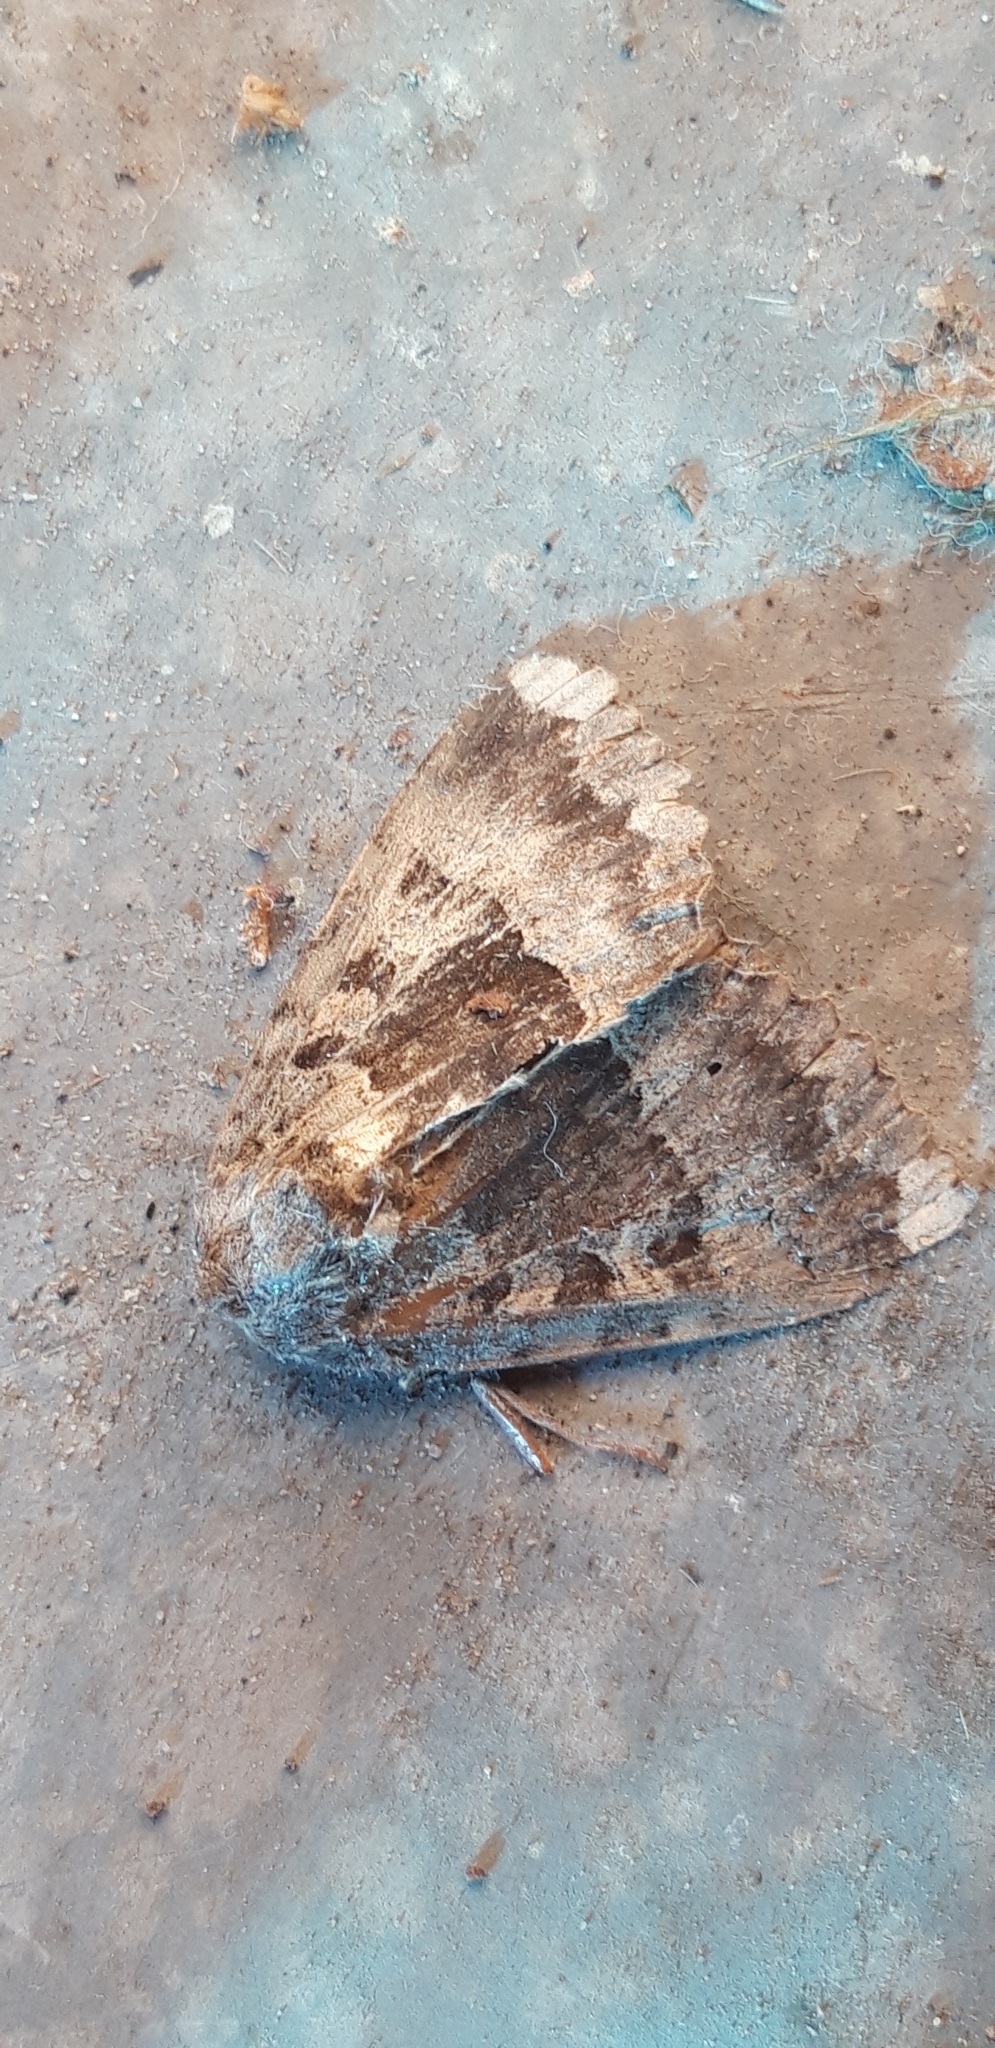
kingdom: Animalia
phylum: Arthropoda
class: Insecta
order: Lepidoptera
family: Noctuidae
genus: Mormo
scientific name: Mormo maura
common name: Old lady
